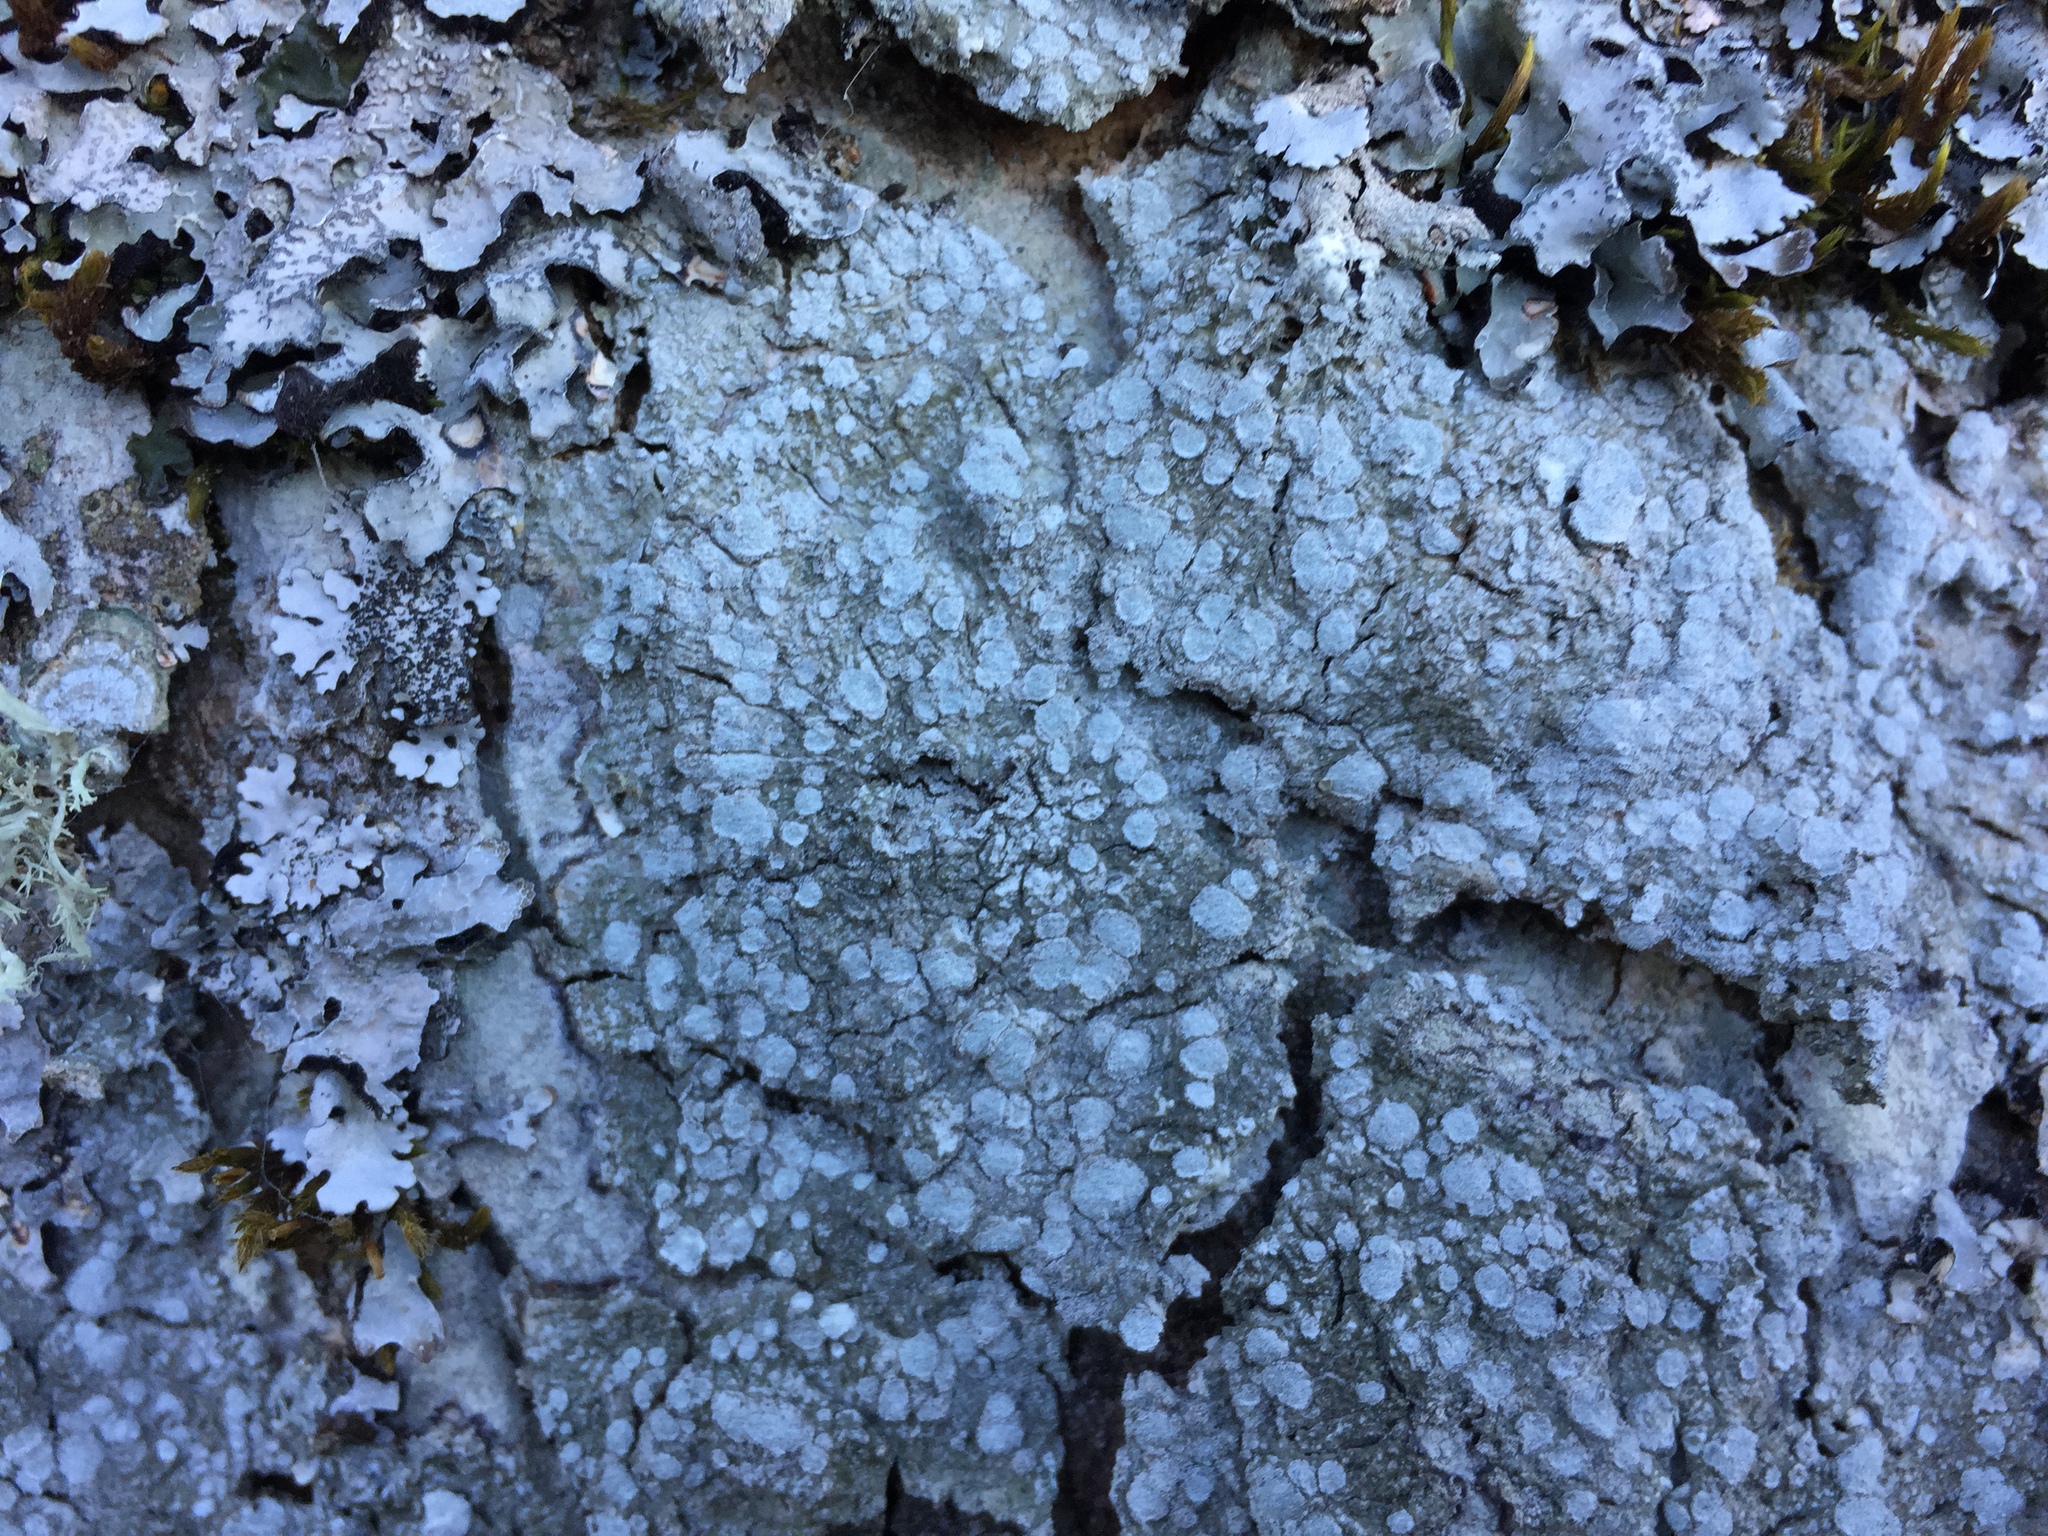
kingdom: Fungi
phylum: Ascomycota
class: Lecanoromycetes
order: Pertusariales
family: Pertusariaceae
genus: Lepra
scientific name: Lepra albescens
